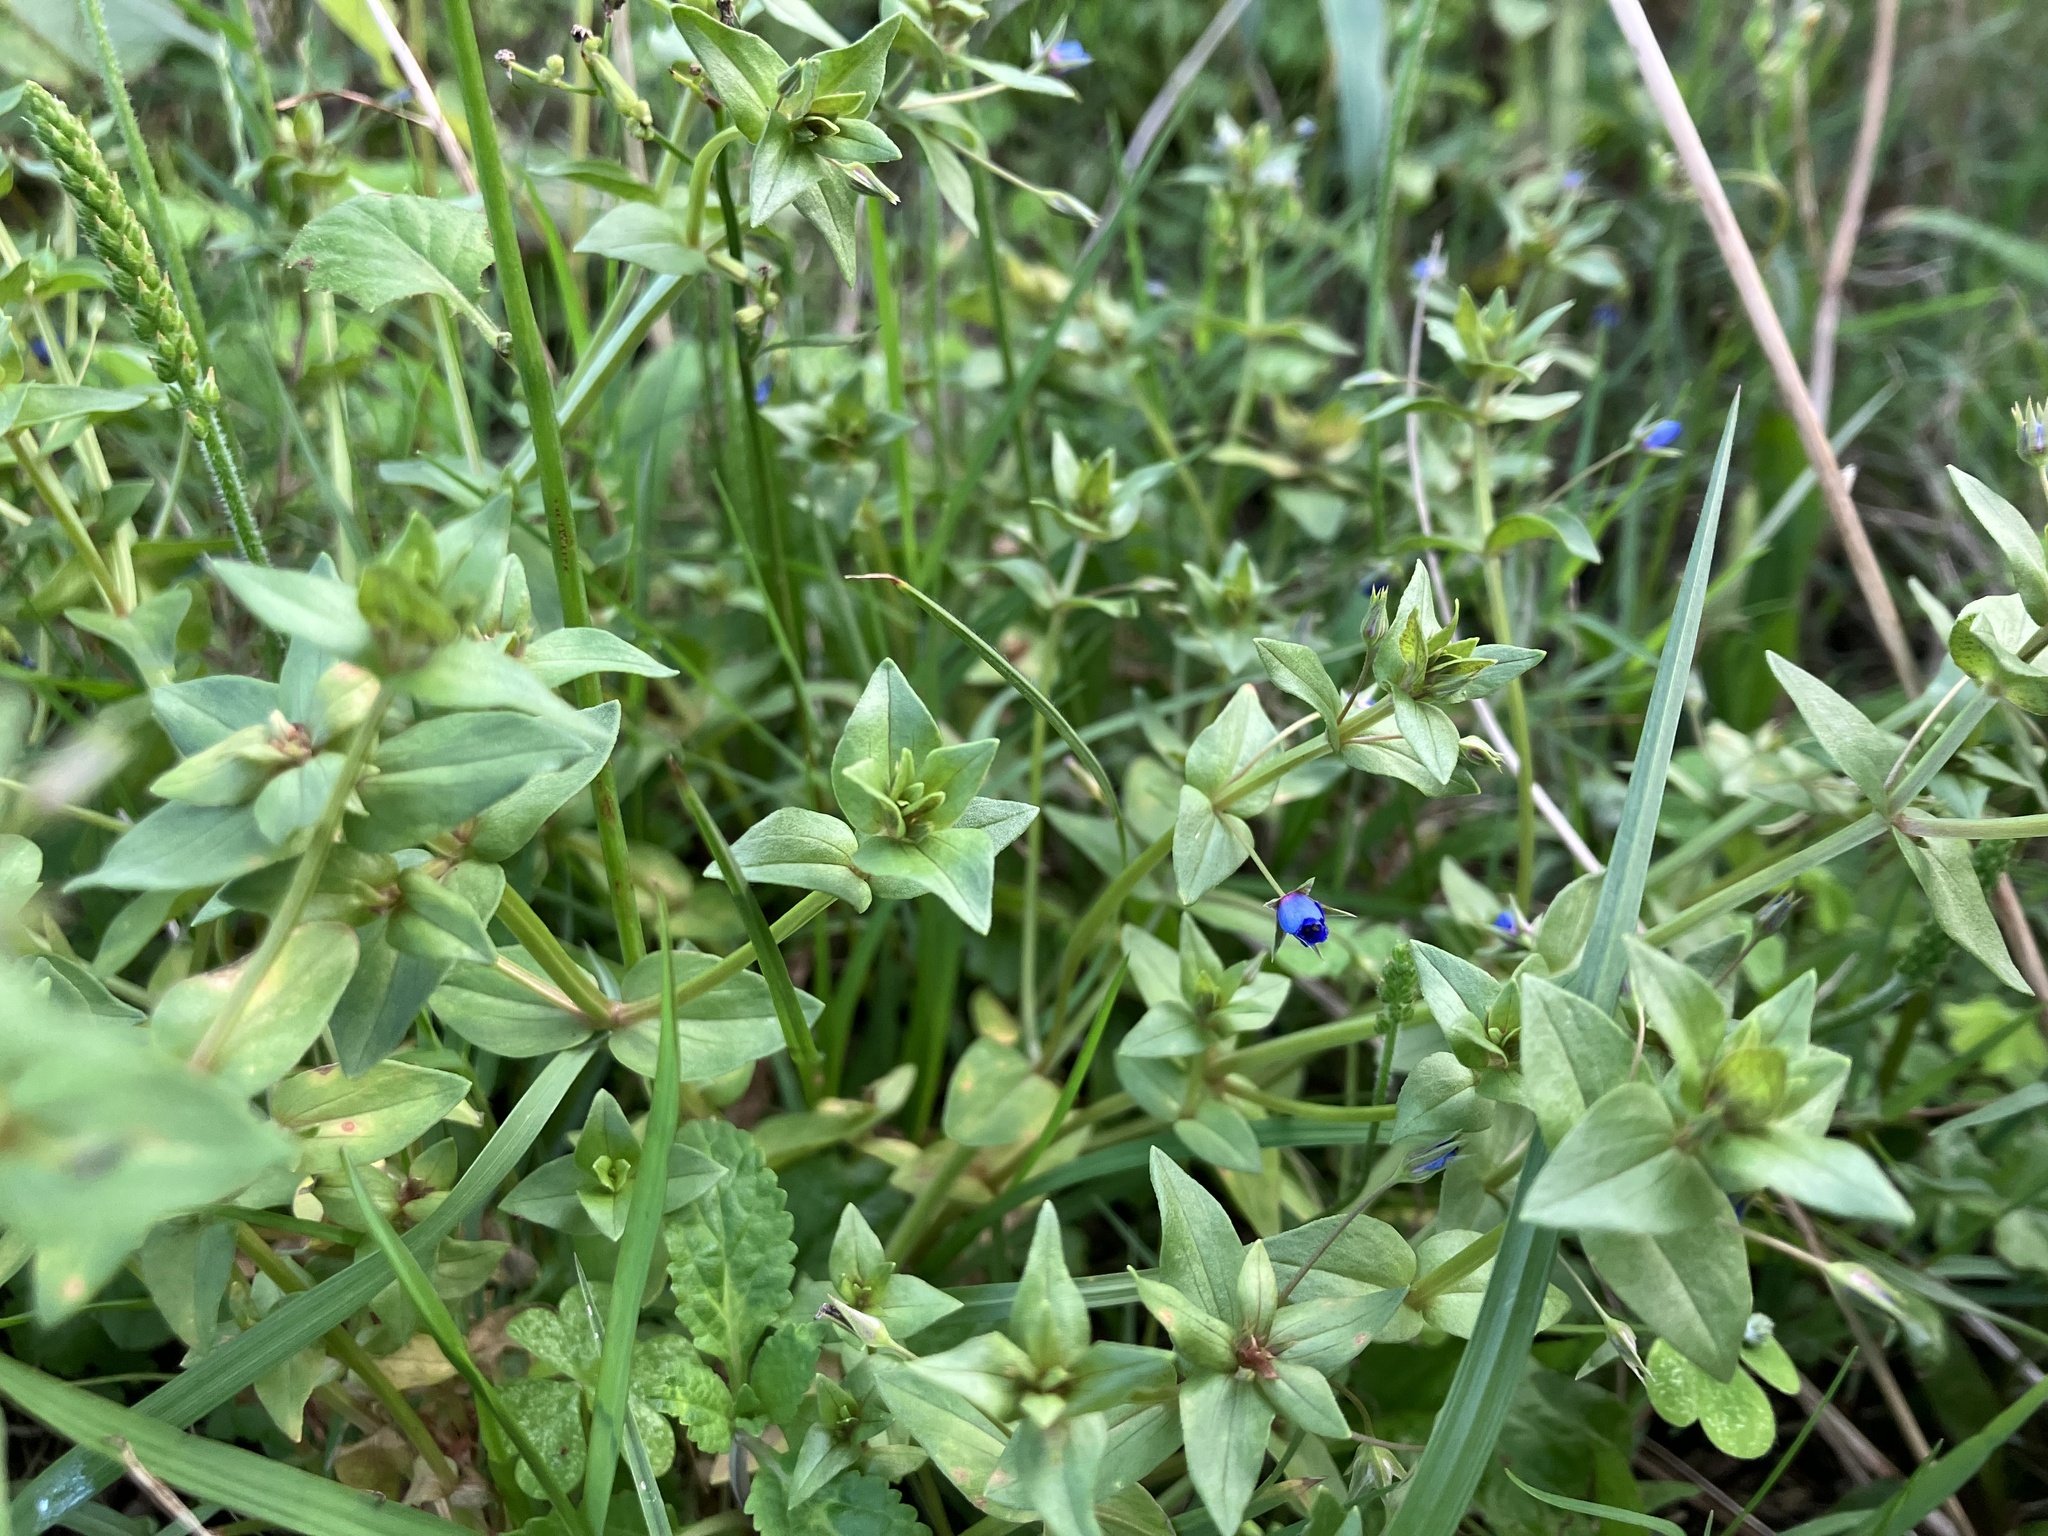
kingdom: Plantae
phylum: Tracheophyta
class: Magnoliopsida
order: Ericales
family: Primulaceae
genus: Lysimachia
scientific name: Lysimachia loeflingii
